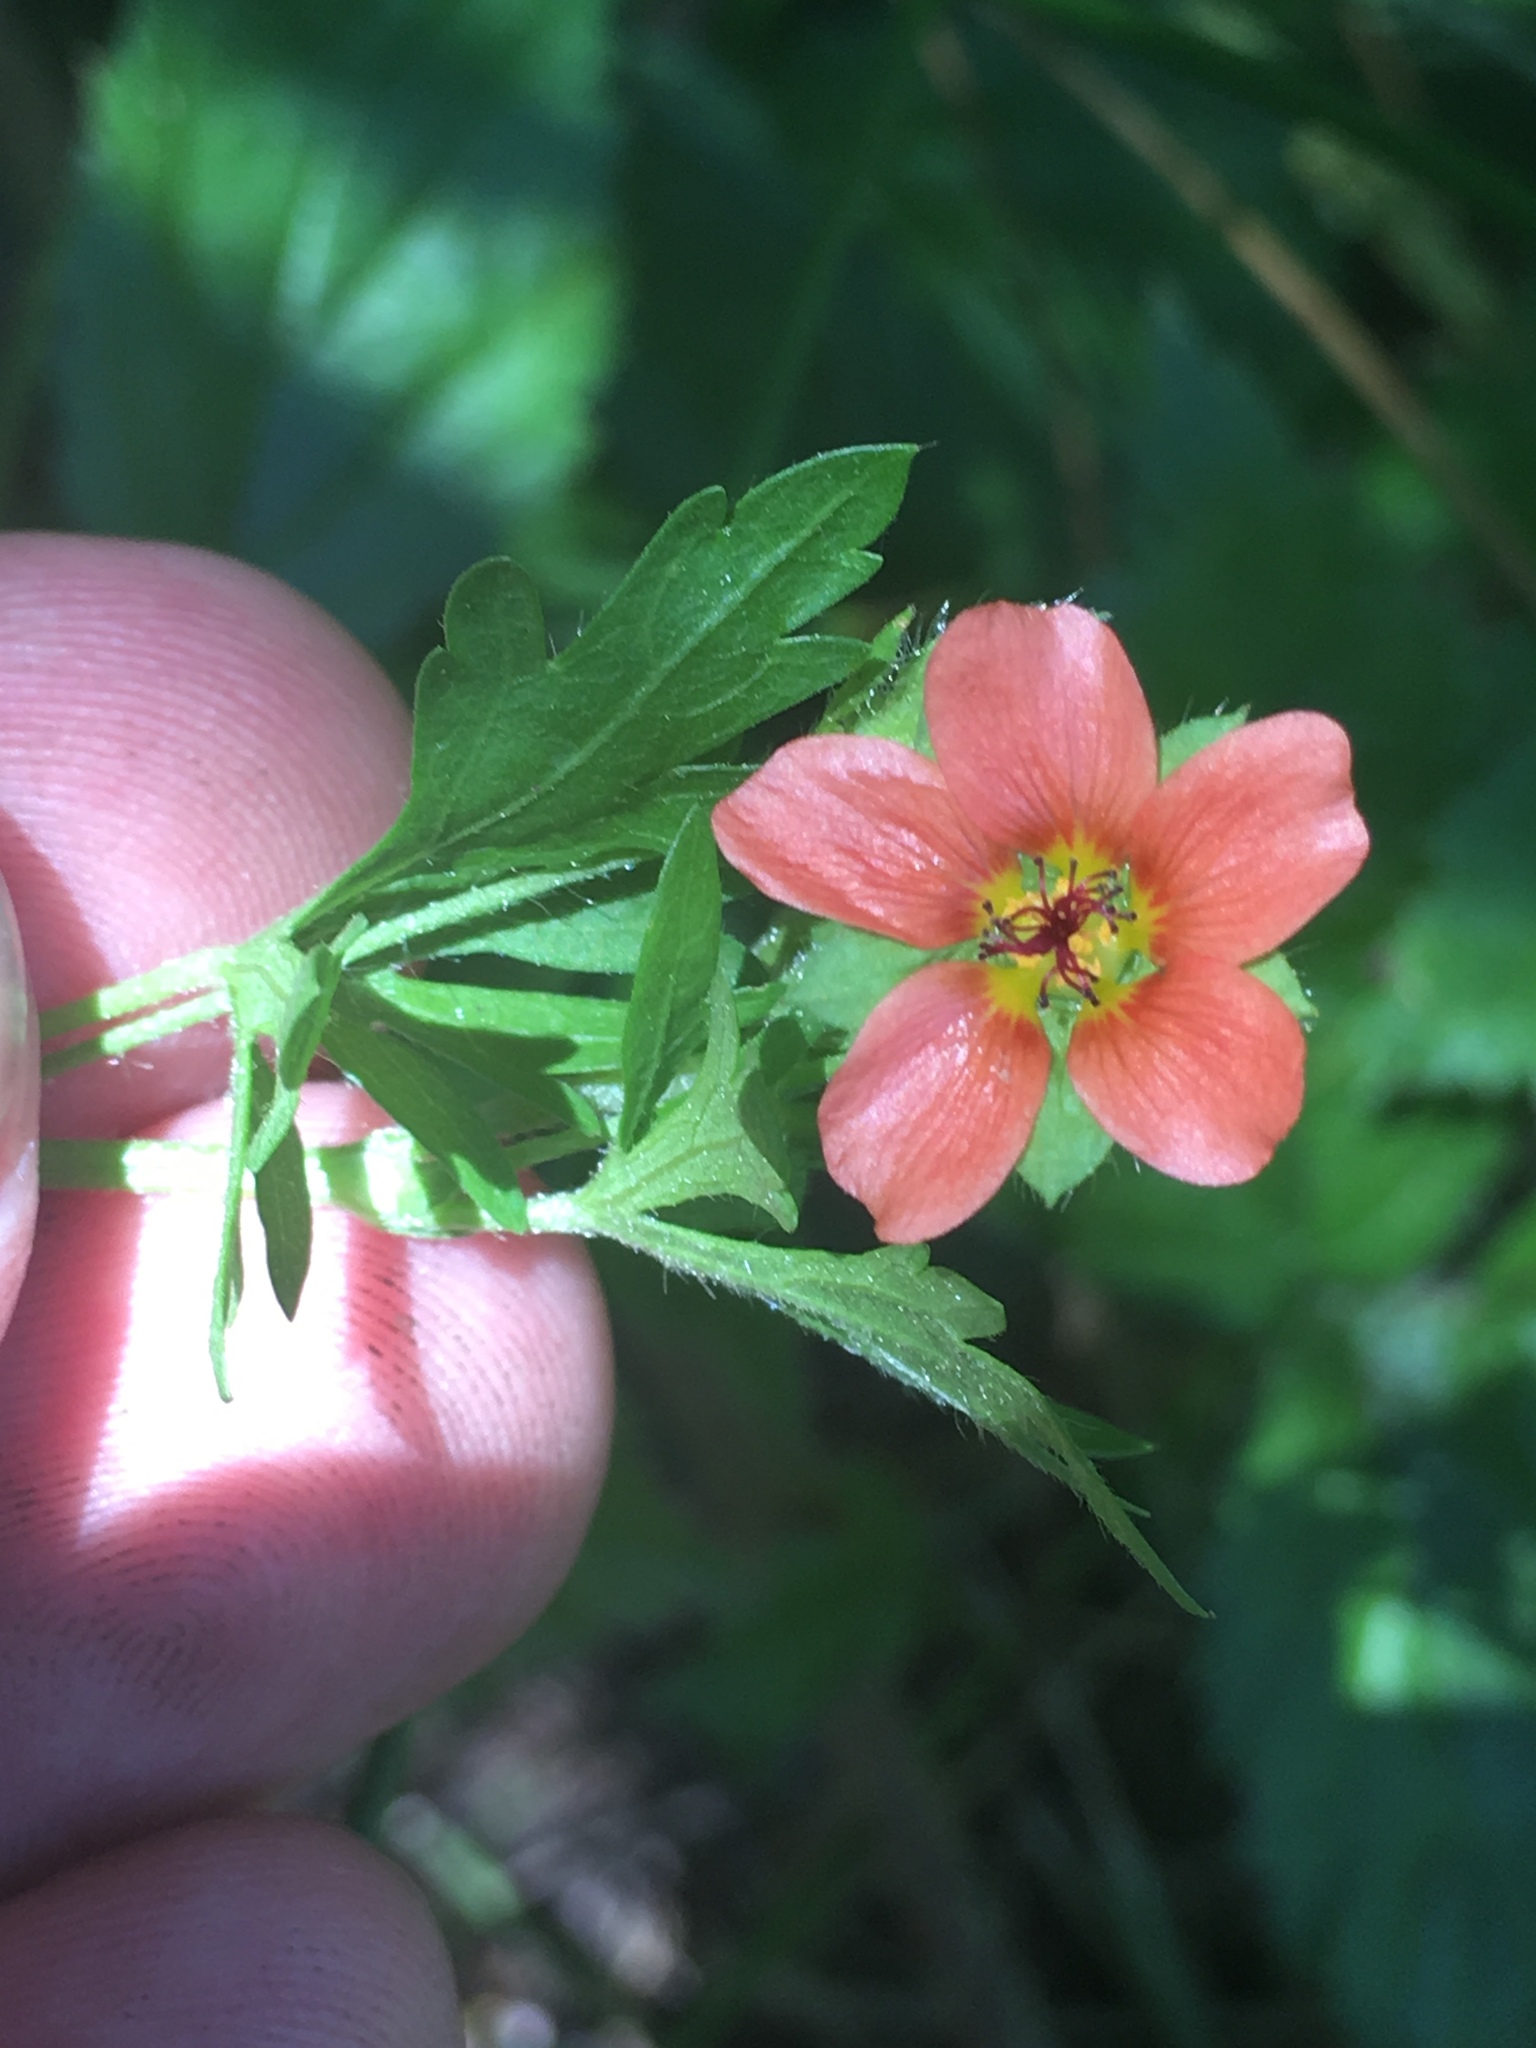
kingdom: Plantae
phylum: Tracheophyta
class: Magnoliopsida
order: Malvales
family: Malvaceae
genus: Modiola
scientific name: Modiola caroliniana
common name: Carolina bristlemallow
